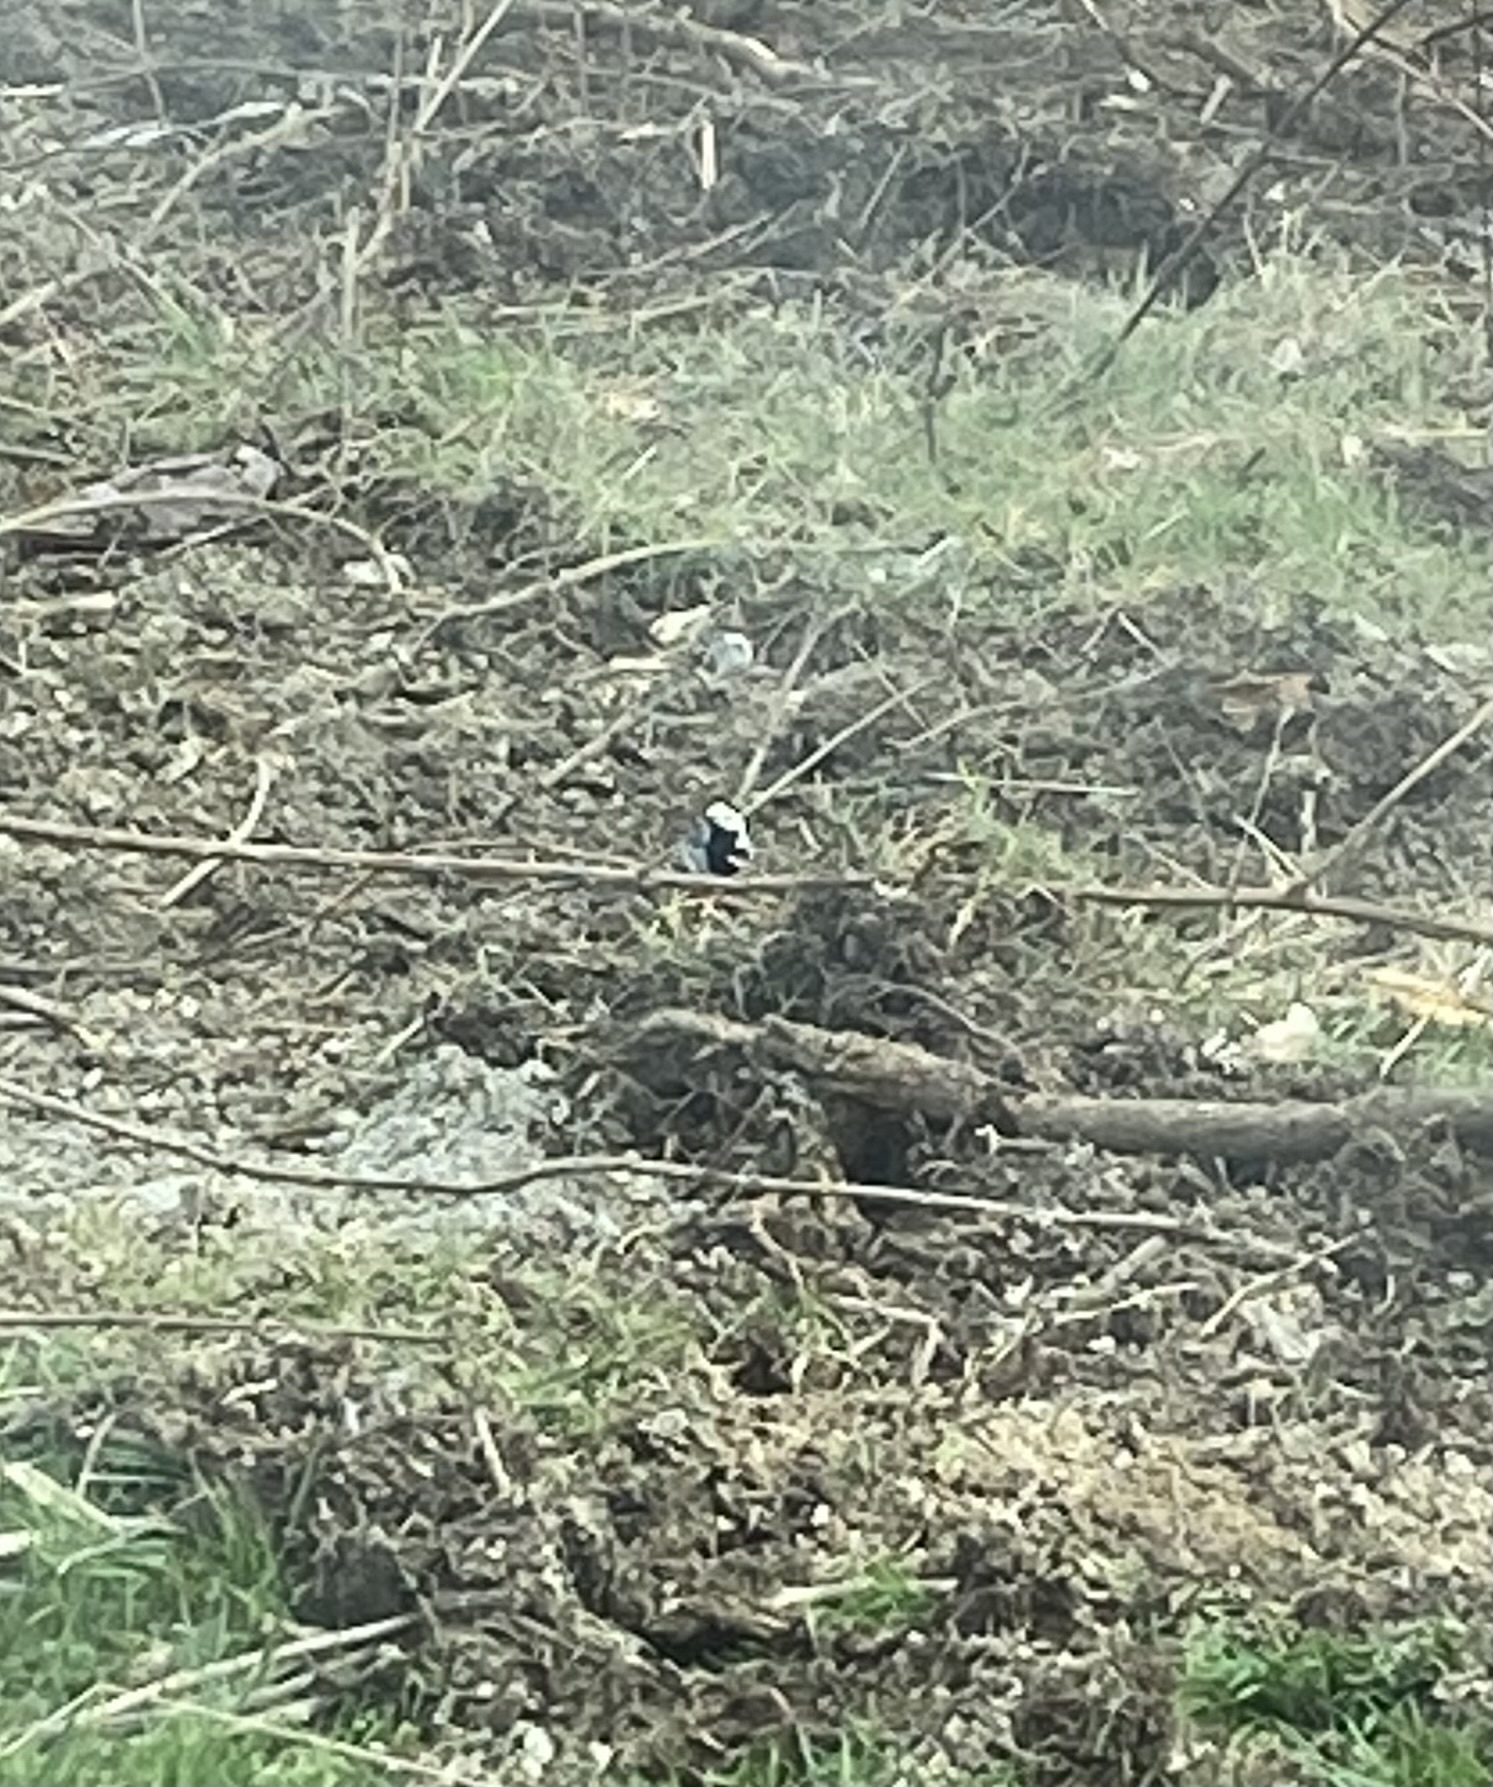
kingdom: Animalia
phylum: Chordata
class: Aves
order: Passeriformes
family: Motacillidae
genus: Motacilla
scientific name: Motacilla alba
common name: White wagtail
